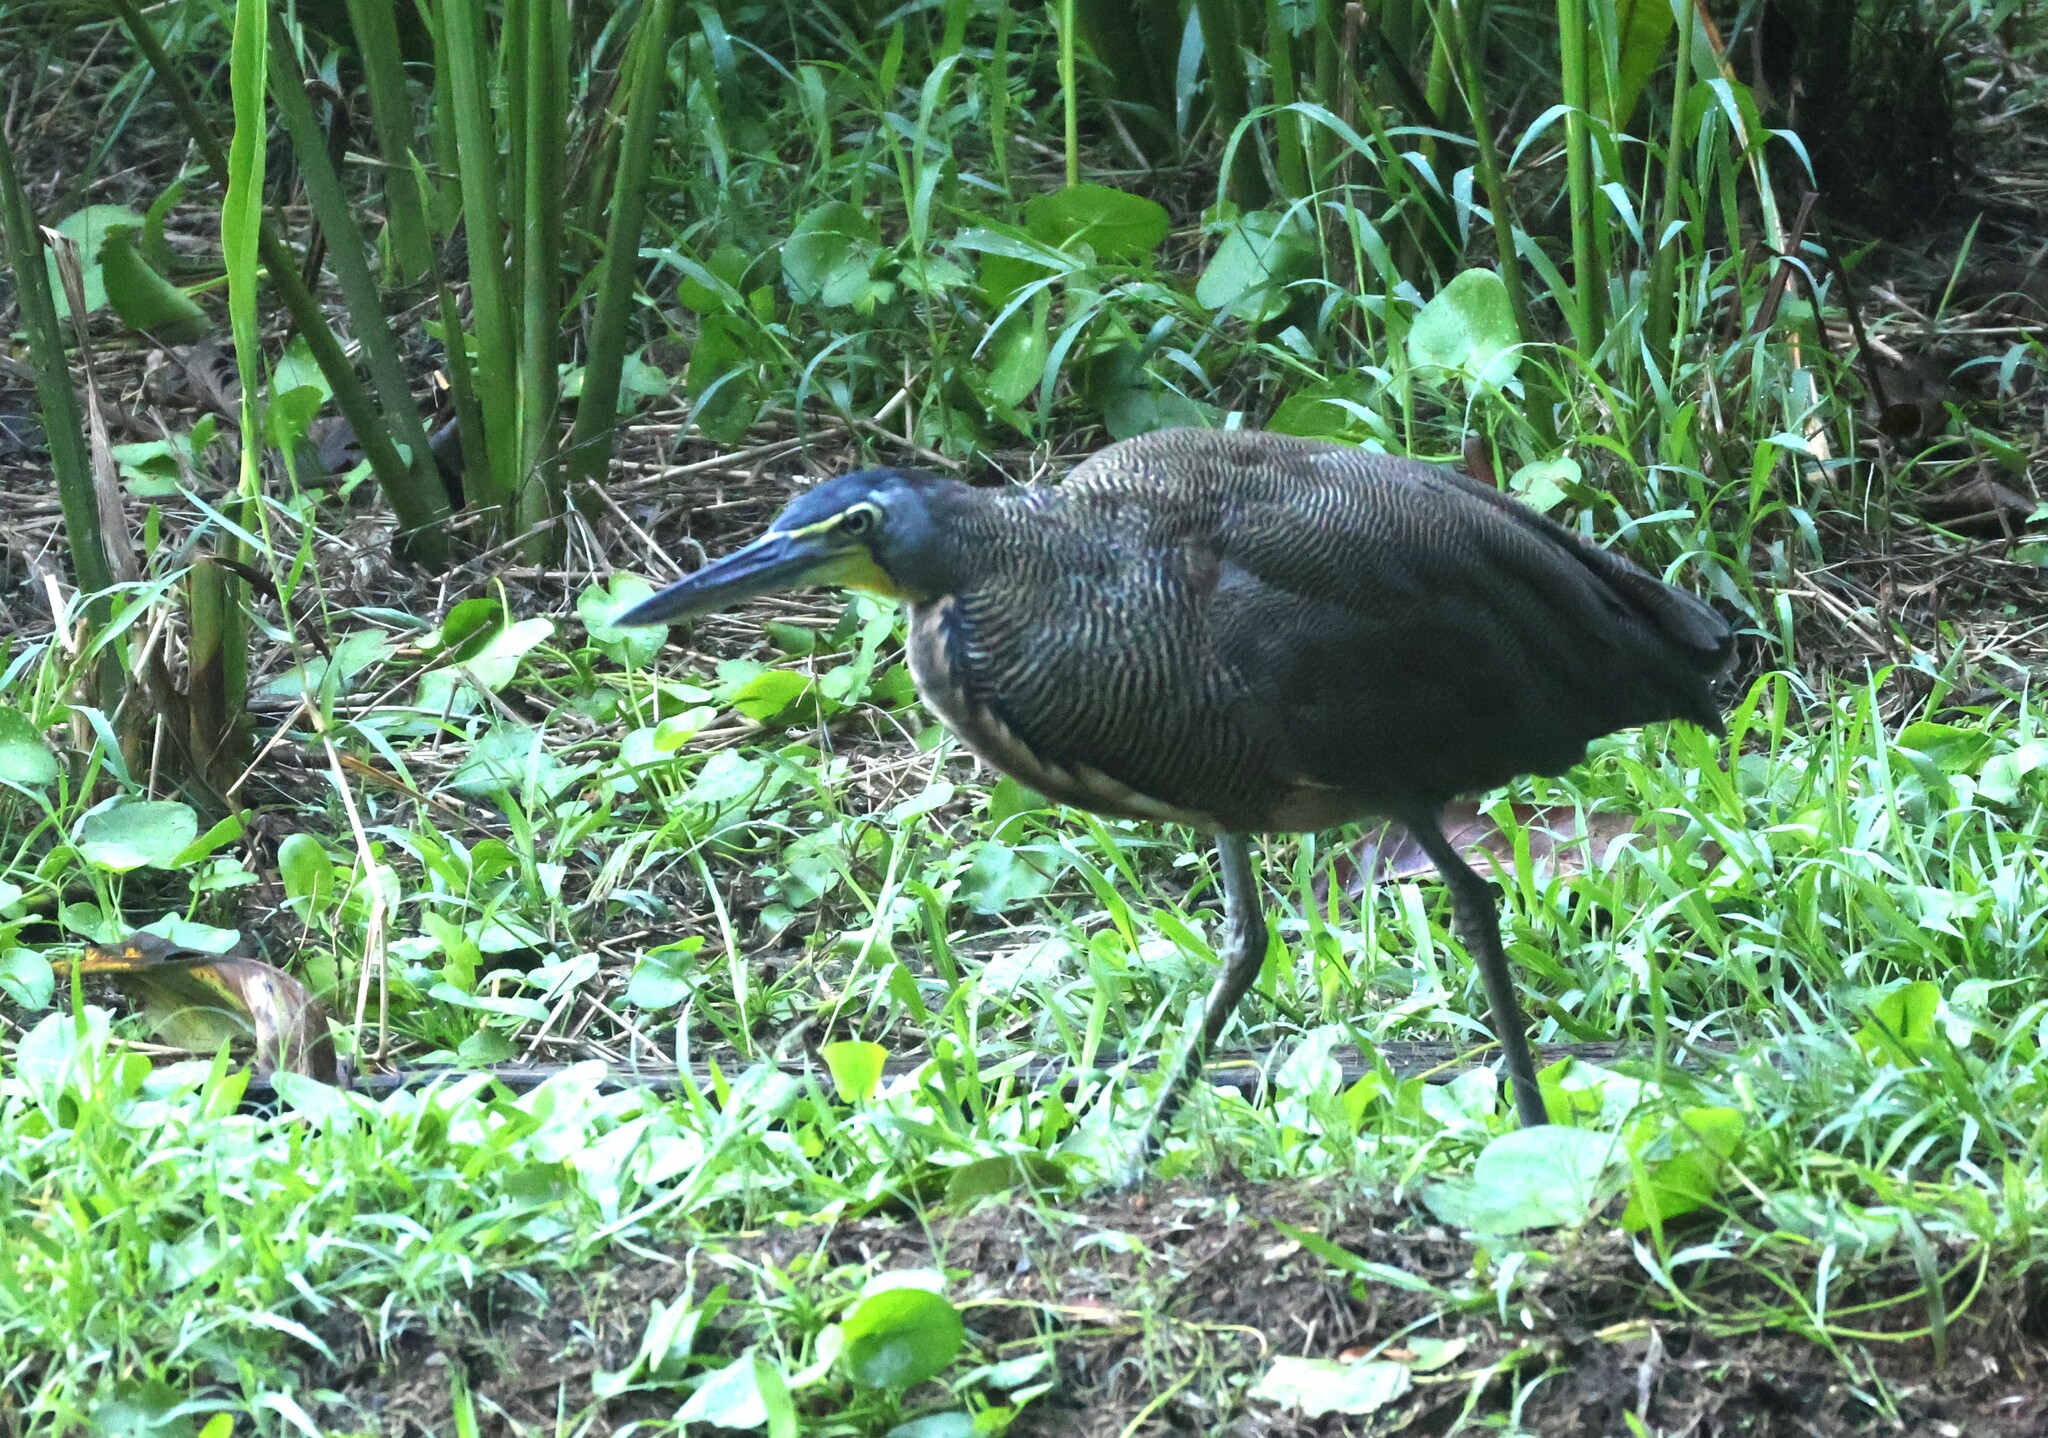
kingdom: Animalia
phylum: Chordata
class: Aves
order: Pelecaniformes
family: Ardeidae
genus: Tigrisoma
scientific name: Tigrisoma mexicanum
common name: Bare-throated tiger-heron
